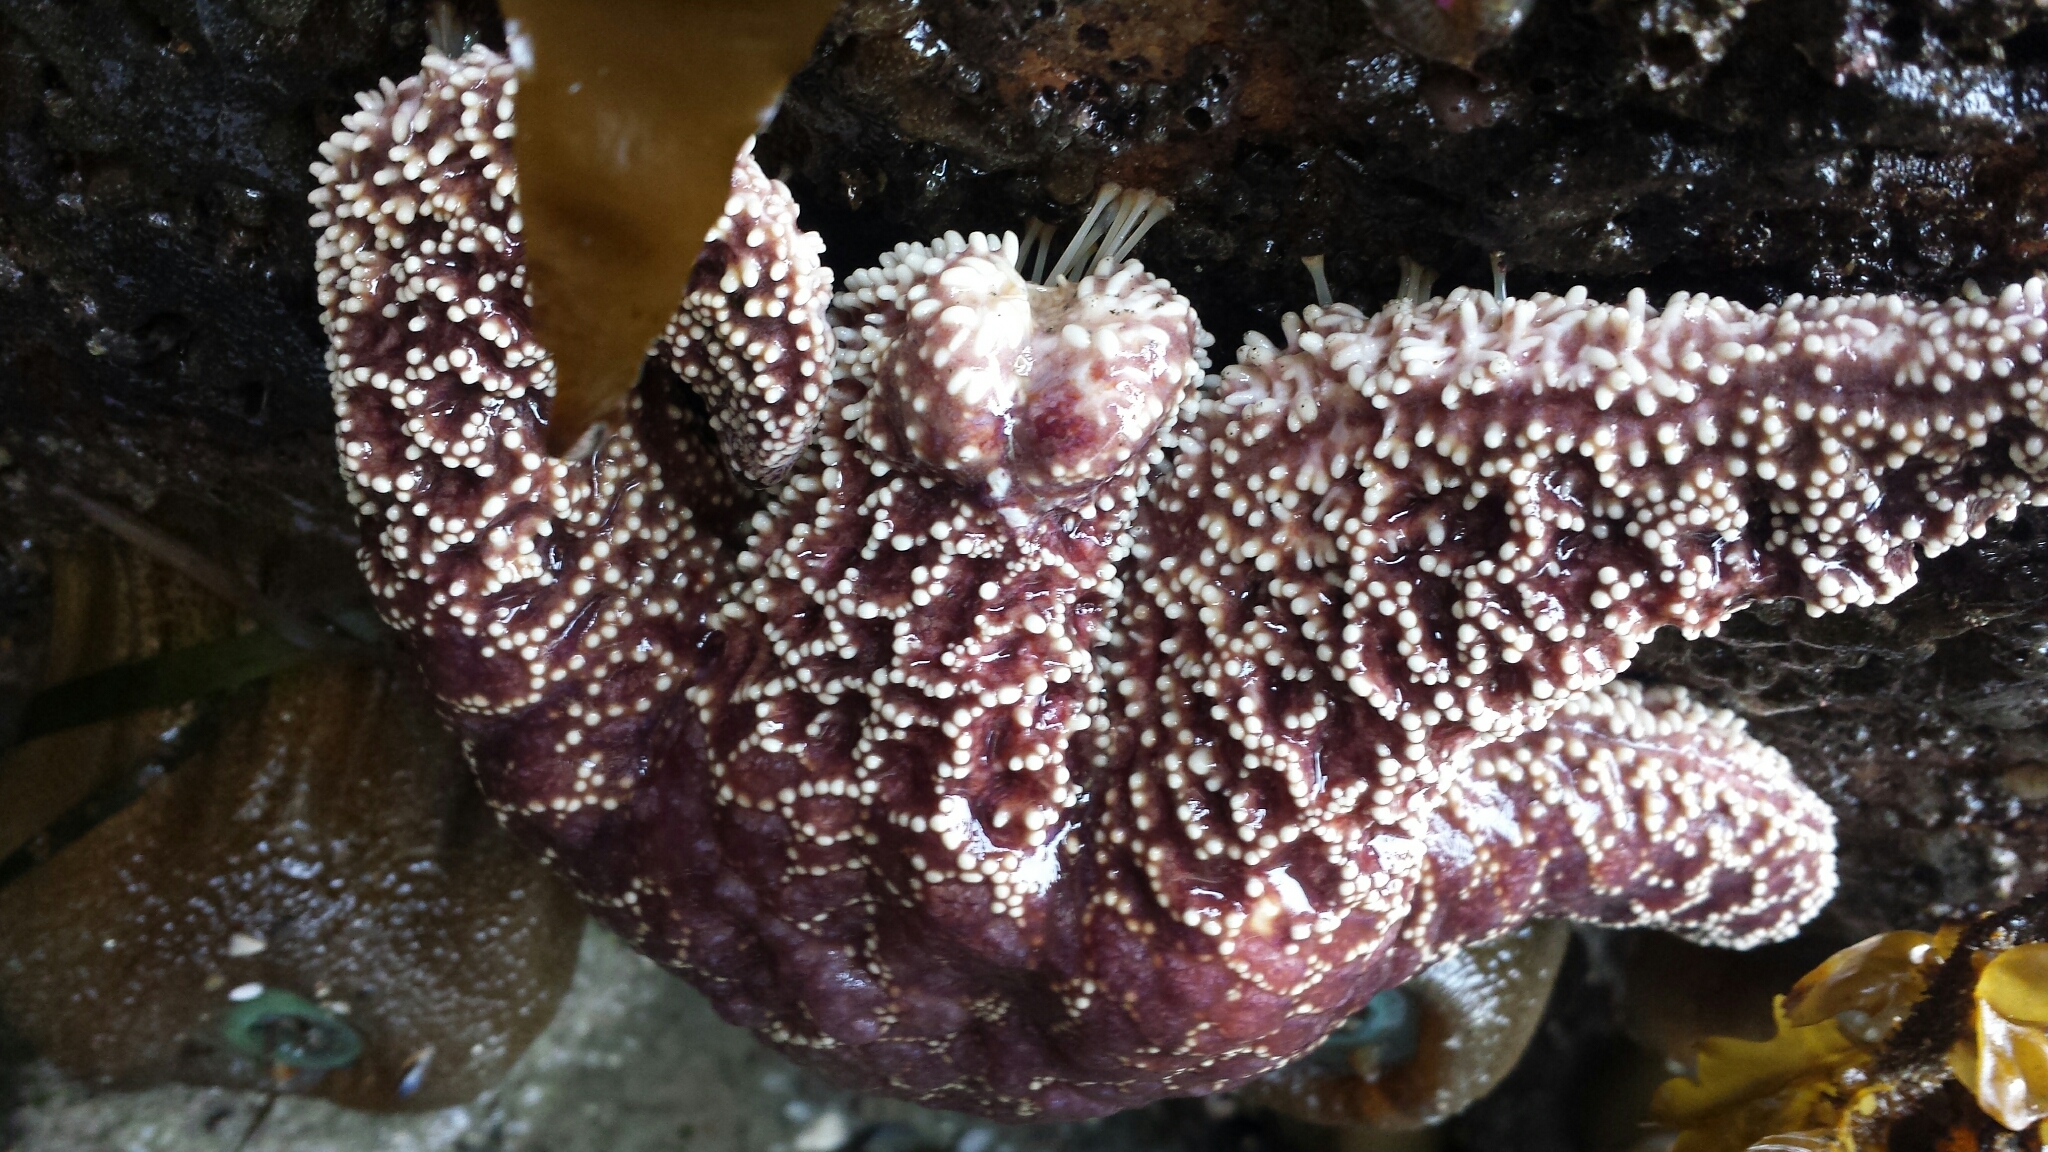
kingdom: Animalia
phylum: Echinodermata
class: Asteroidea
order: Forcipulatida
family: Asteriidae
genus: Pisaster
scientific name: Pisaster ochraceus
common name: Ochre stars
